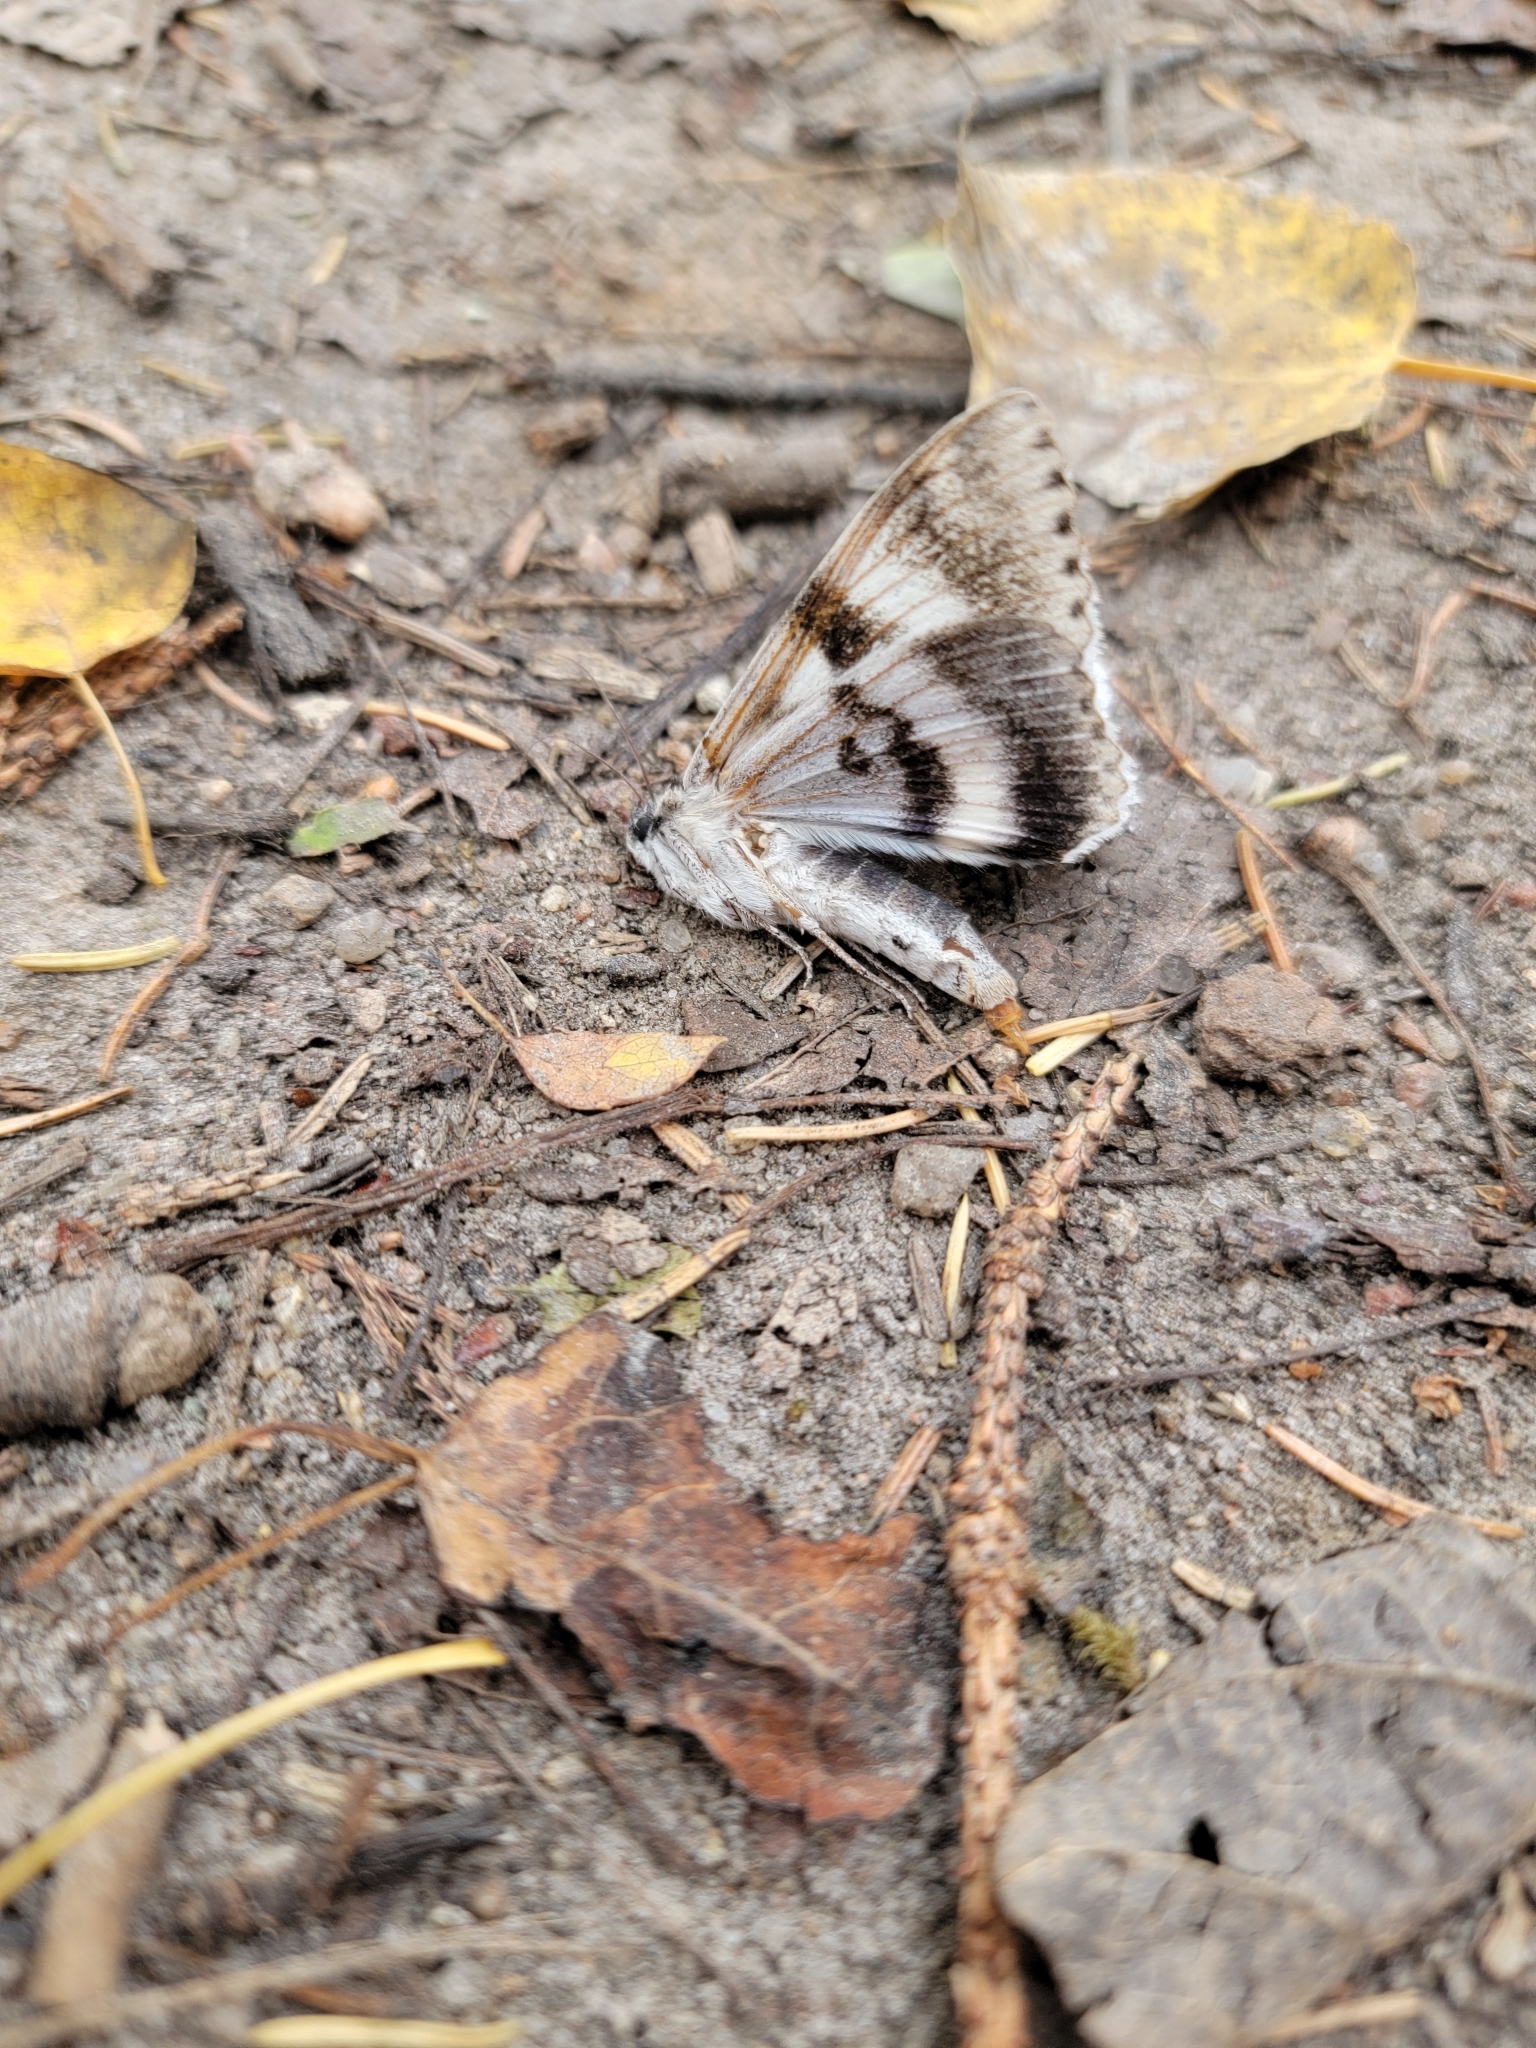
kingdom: Animalia
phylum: Arthropoda
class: Insecta
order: Lepidoptera
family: Erebidae
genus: Catocala
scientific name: Catocala relicta
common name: White underwing
